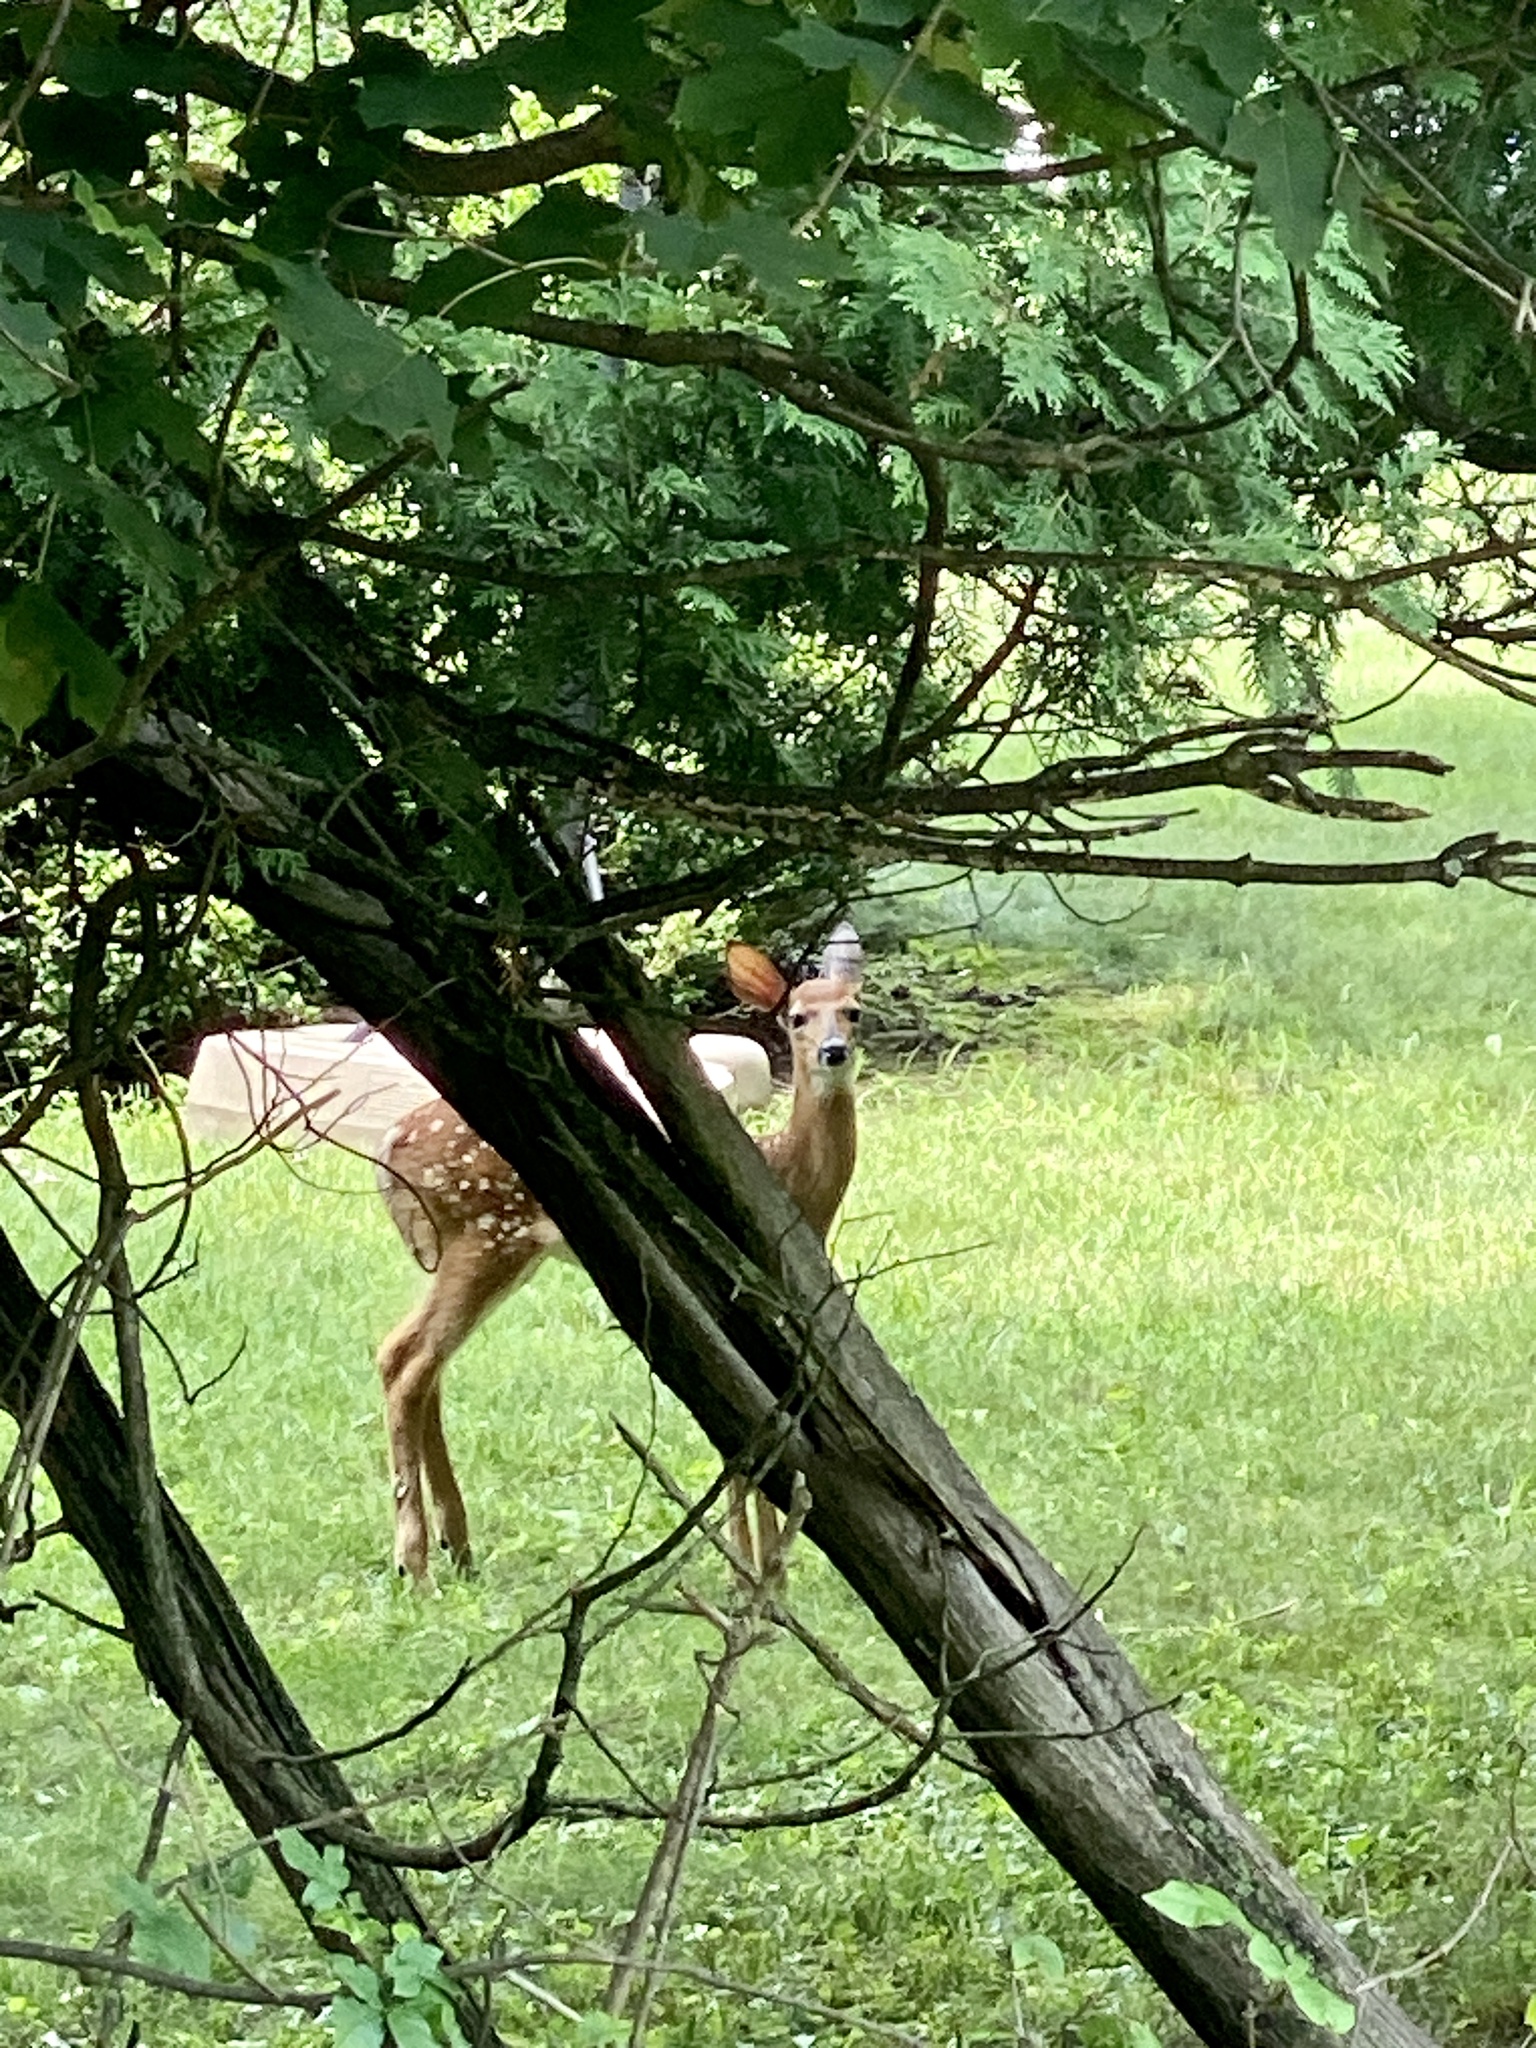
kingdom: Animalia
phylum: Chordata
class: Mammalia
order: Artiodactyla
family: Cervidae
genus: Odocoileus
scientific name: Odocoileus virginianus
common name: White-tailed deer
